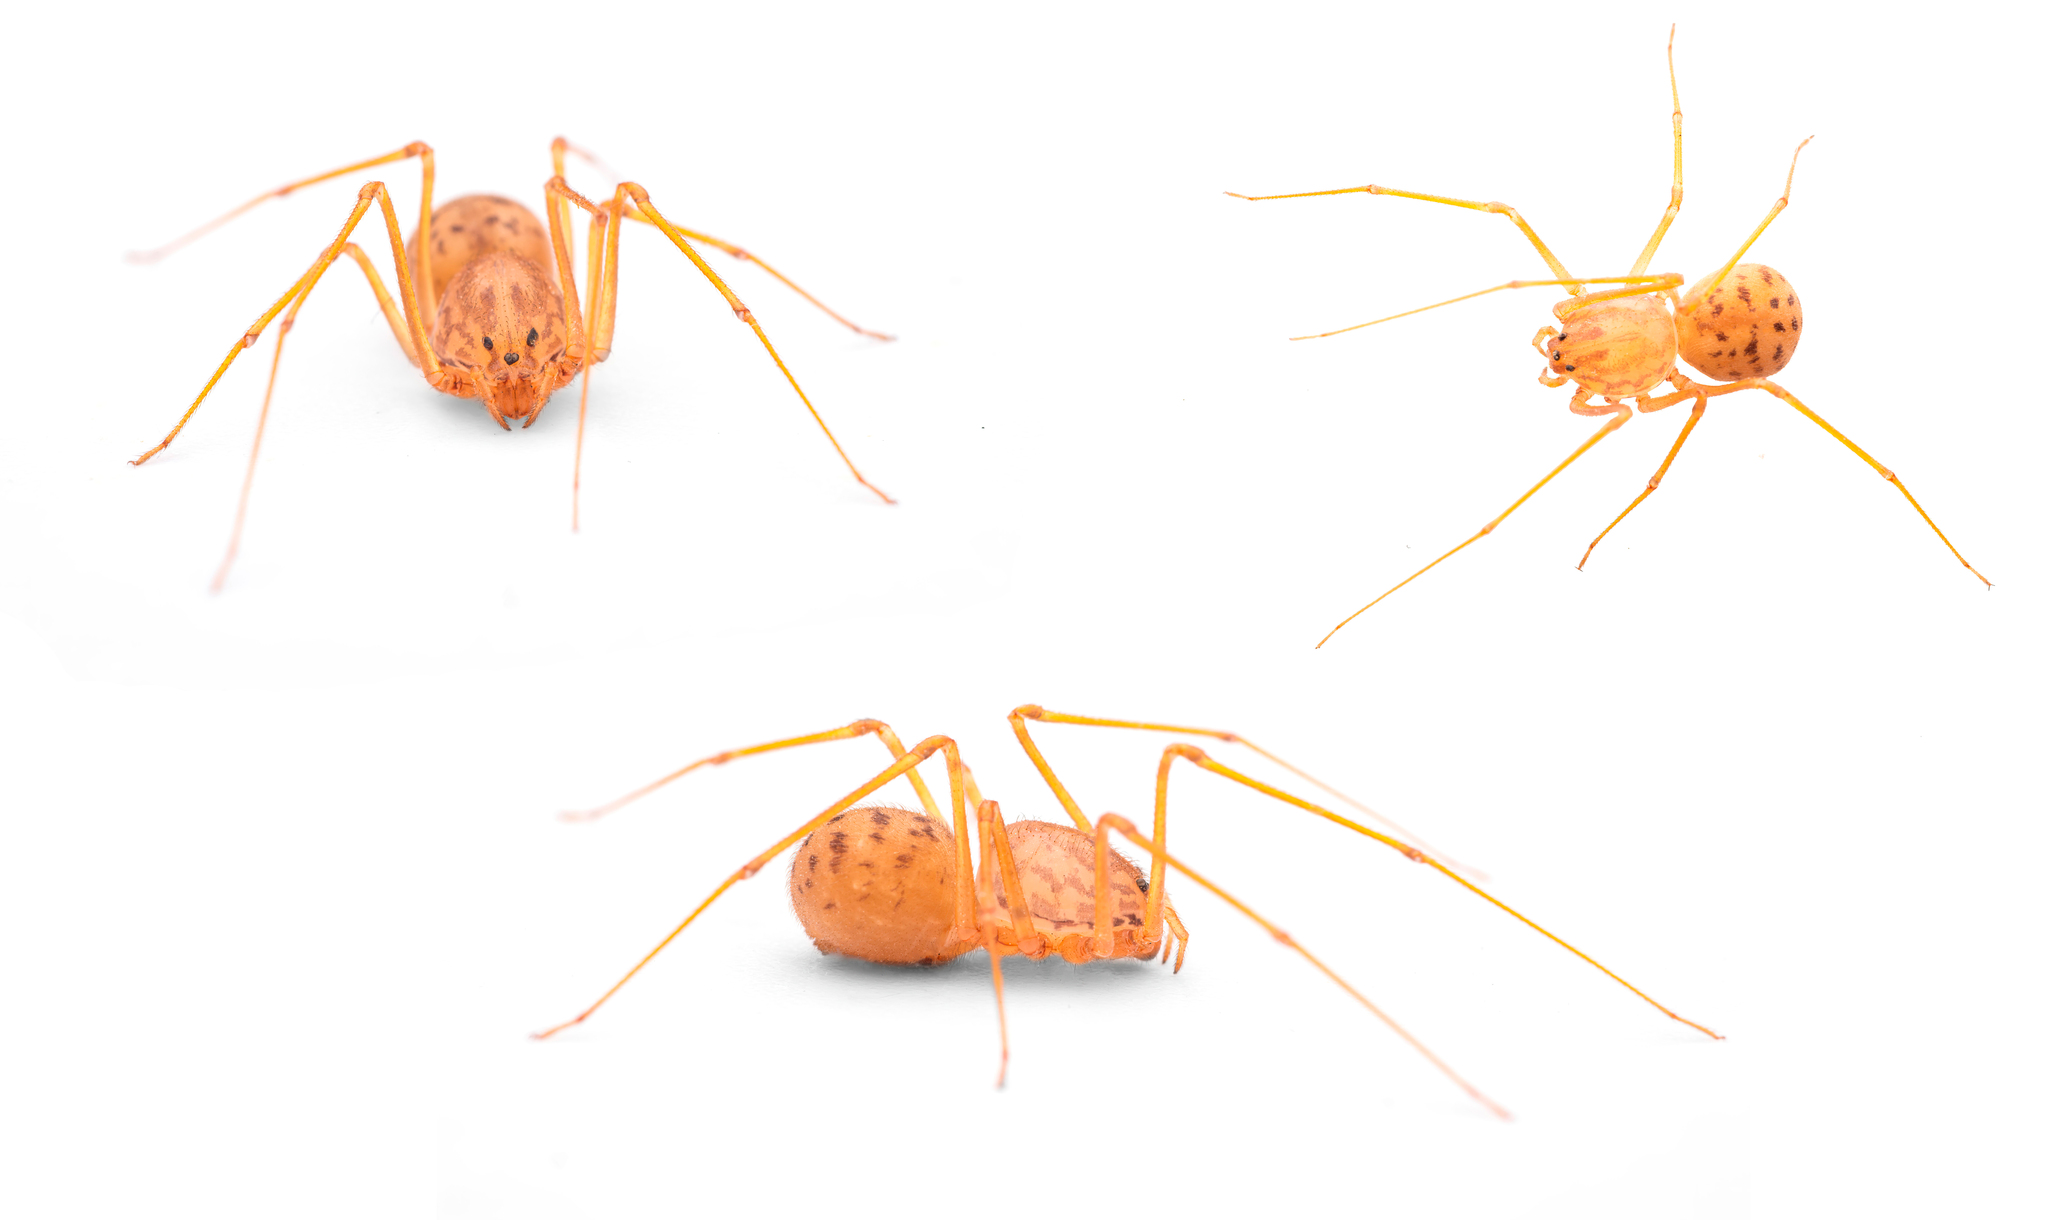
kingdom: Animalia
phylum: Arthropoda
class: Arachnida
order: Araneae
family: Scytodidae
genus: Scytodes
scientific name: Scytodes univittata
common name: Spitting spider
